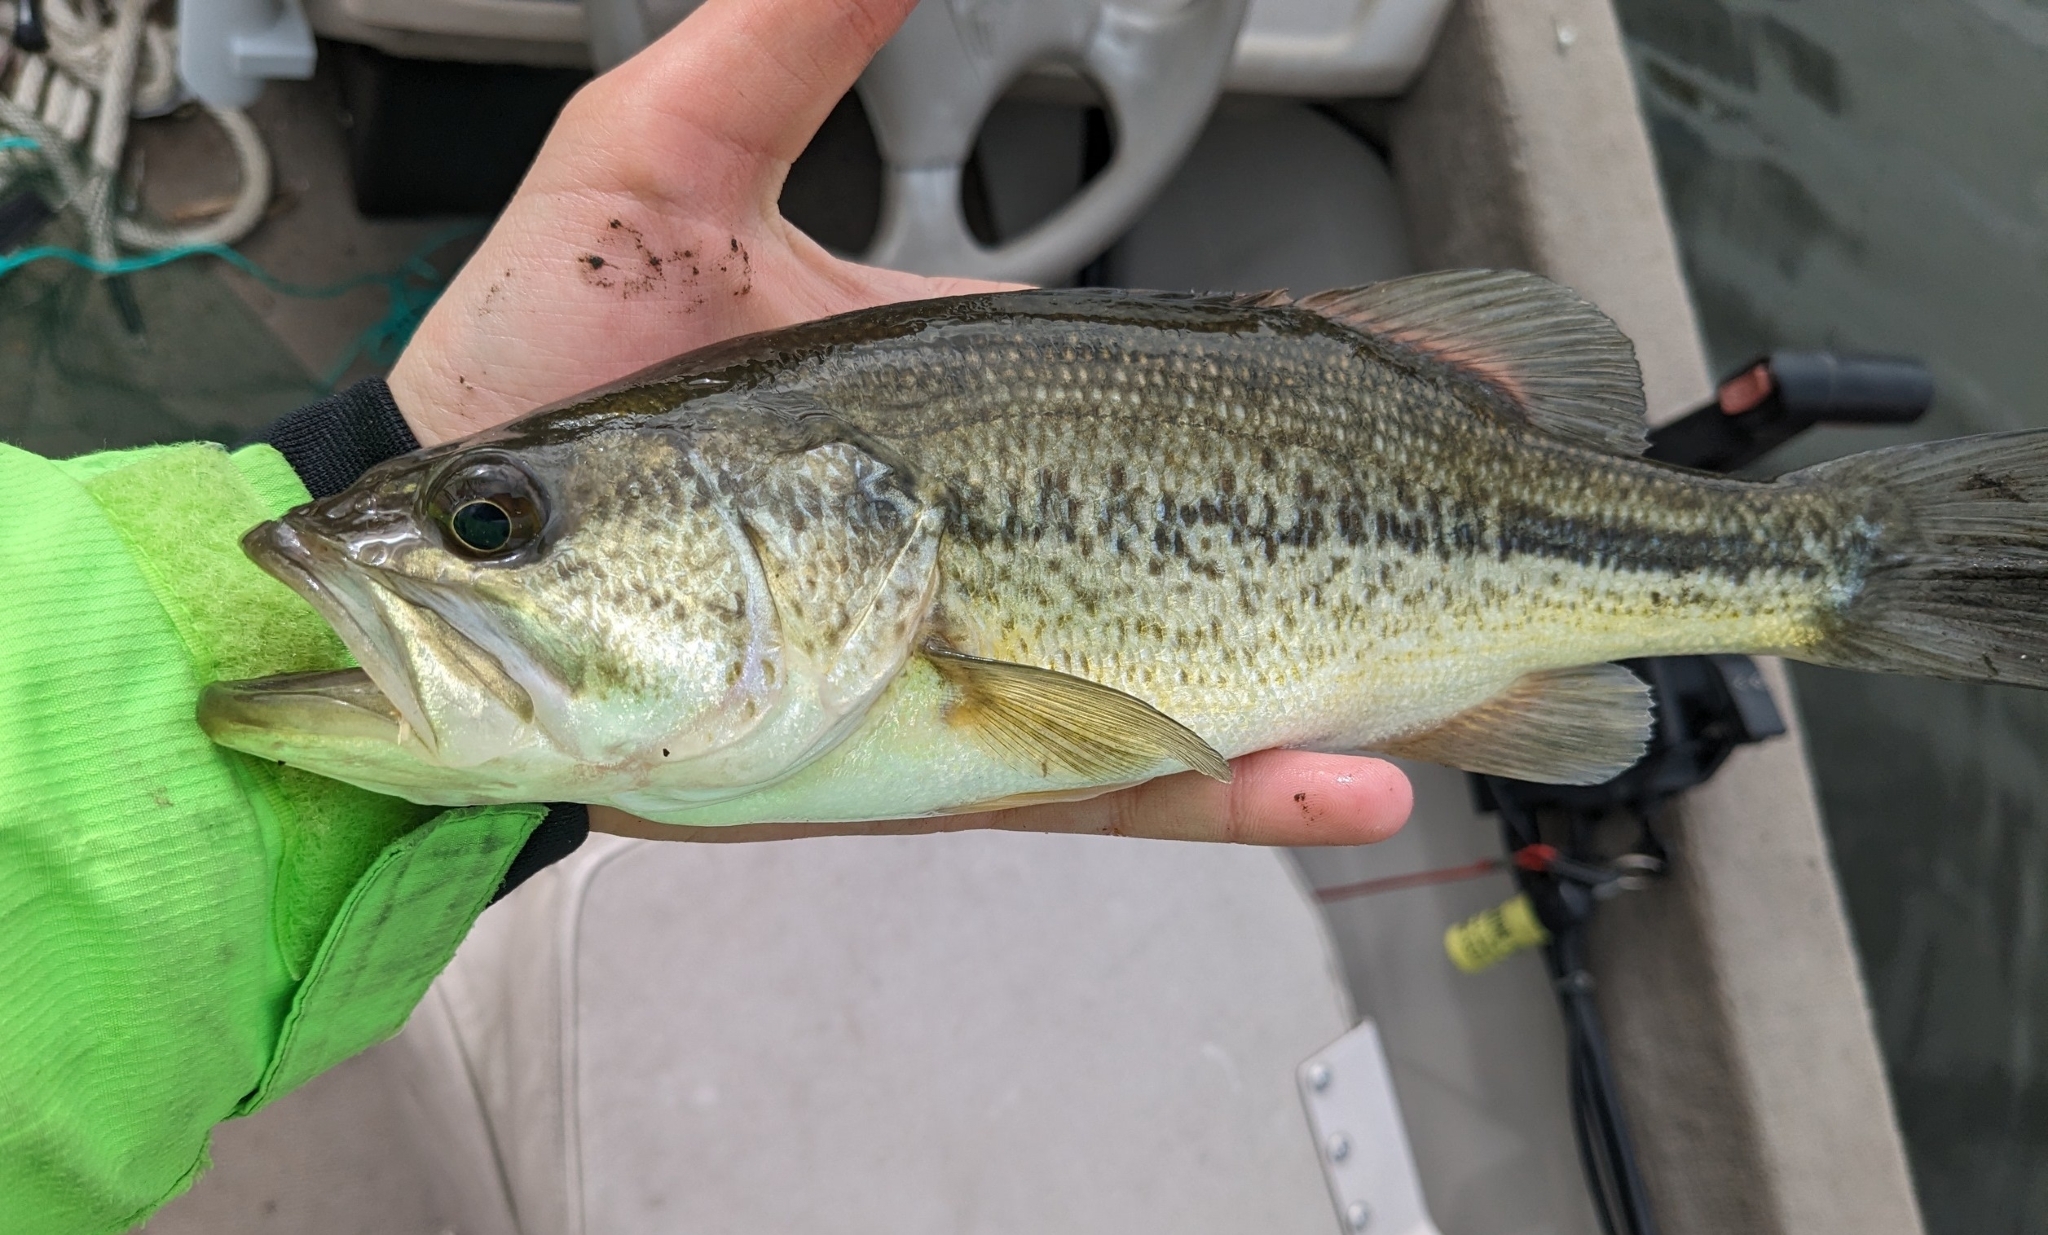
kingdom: Animalia
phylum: Chordata
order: Perciformes
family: Centrarchidae
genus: Micropterus
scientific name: Micropterus
